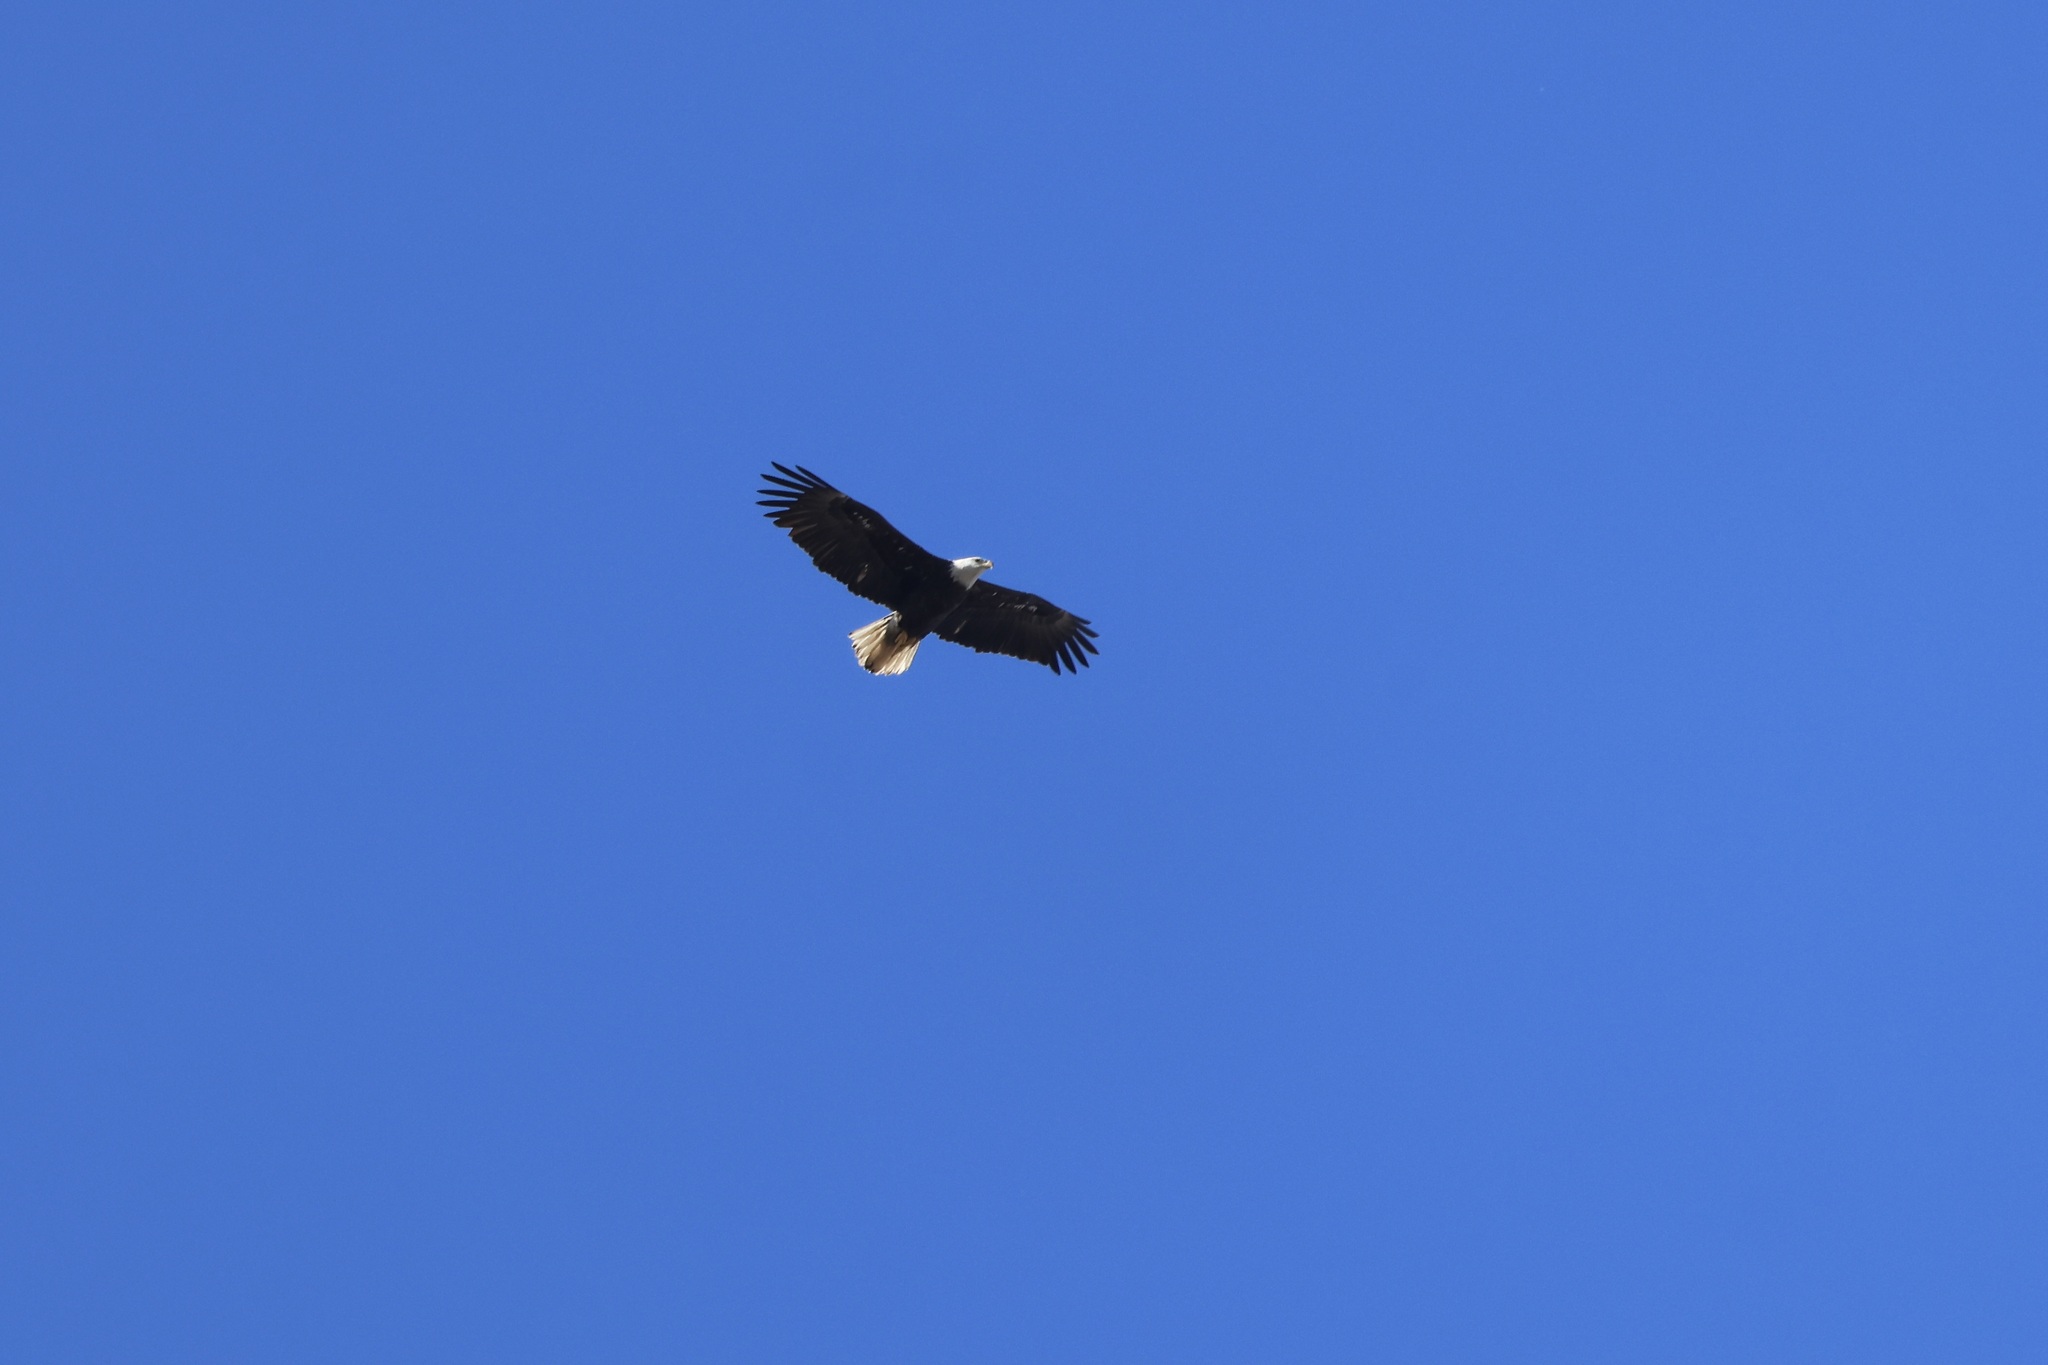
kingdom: Animalia
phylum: Chordata
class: Aves
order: Accipitriformes
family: Accipitridae
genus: Haliaeetus
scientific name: Haliaeetus leucocephalus
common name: Bald eagle
